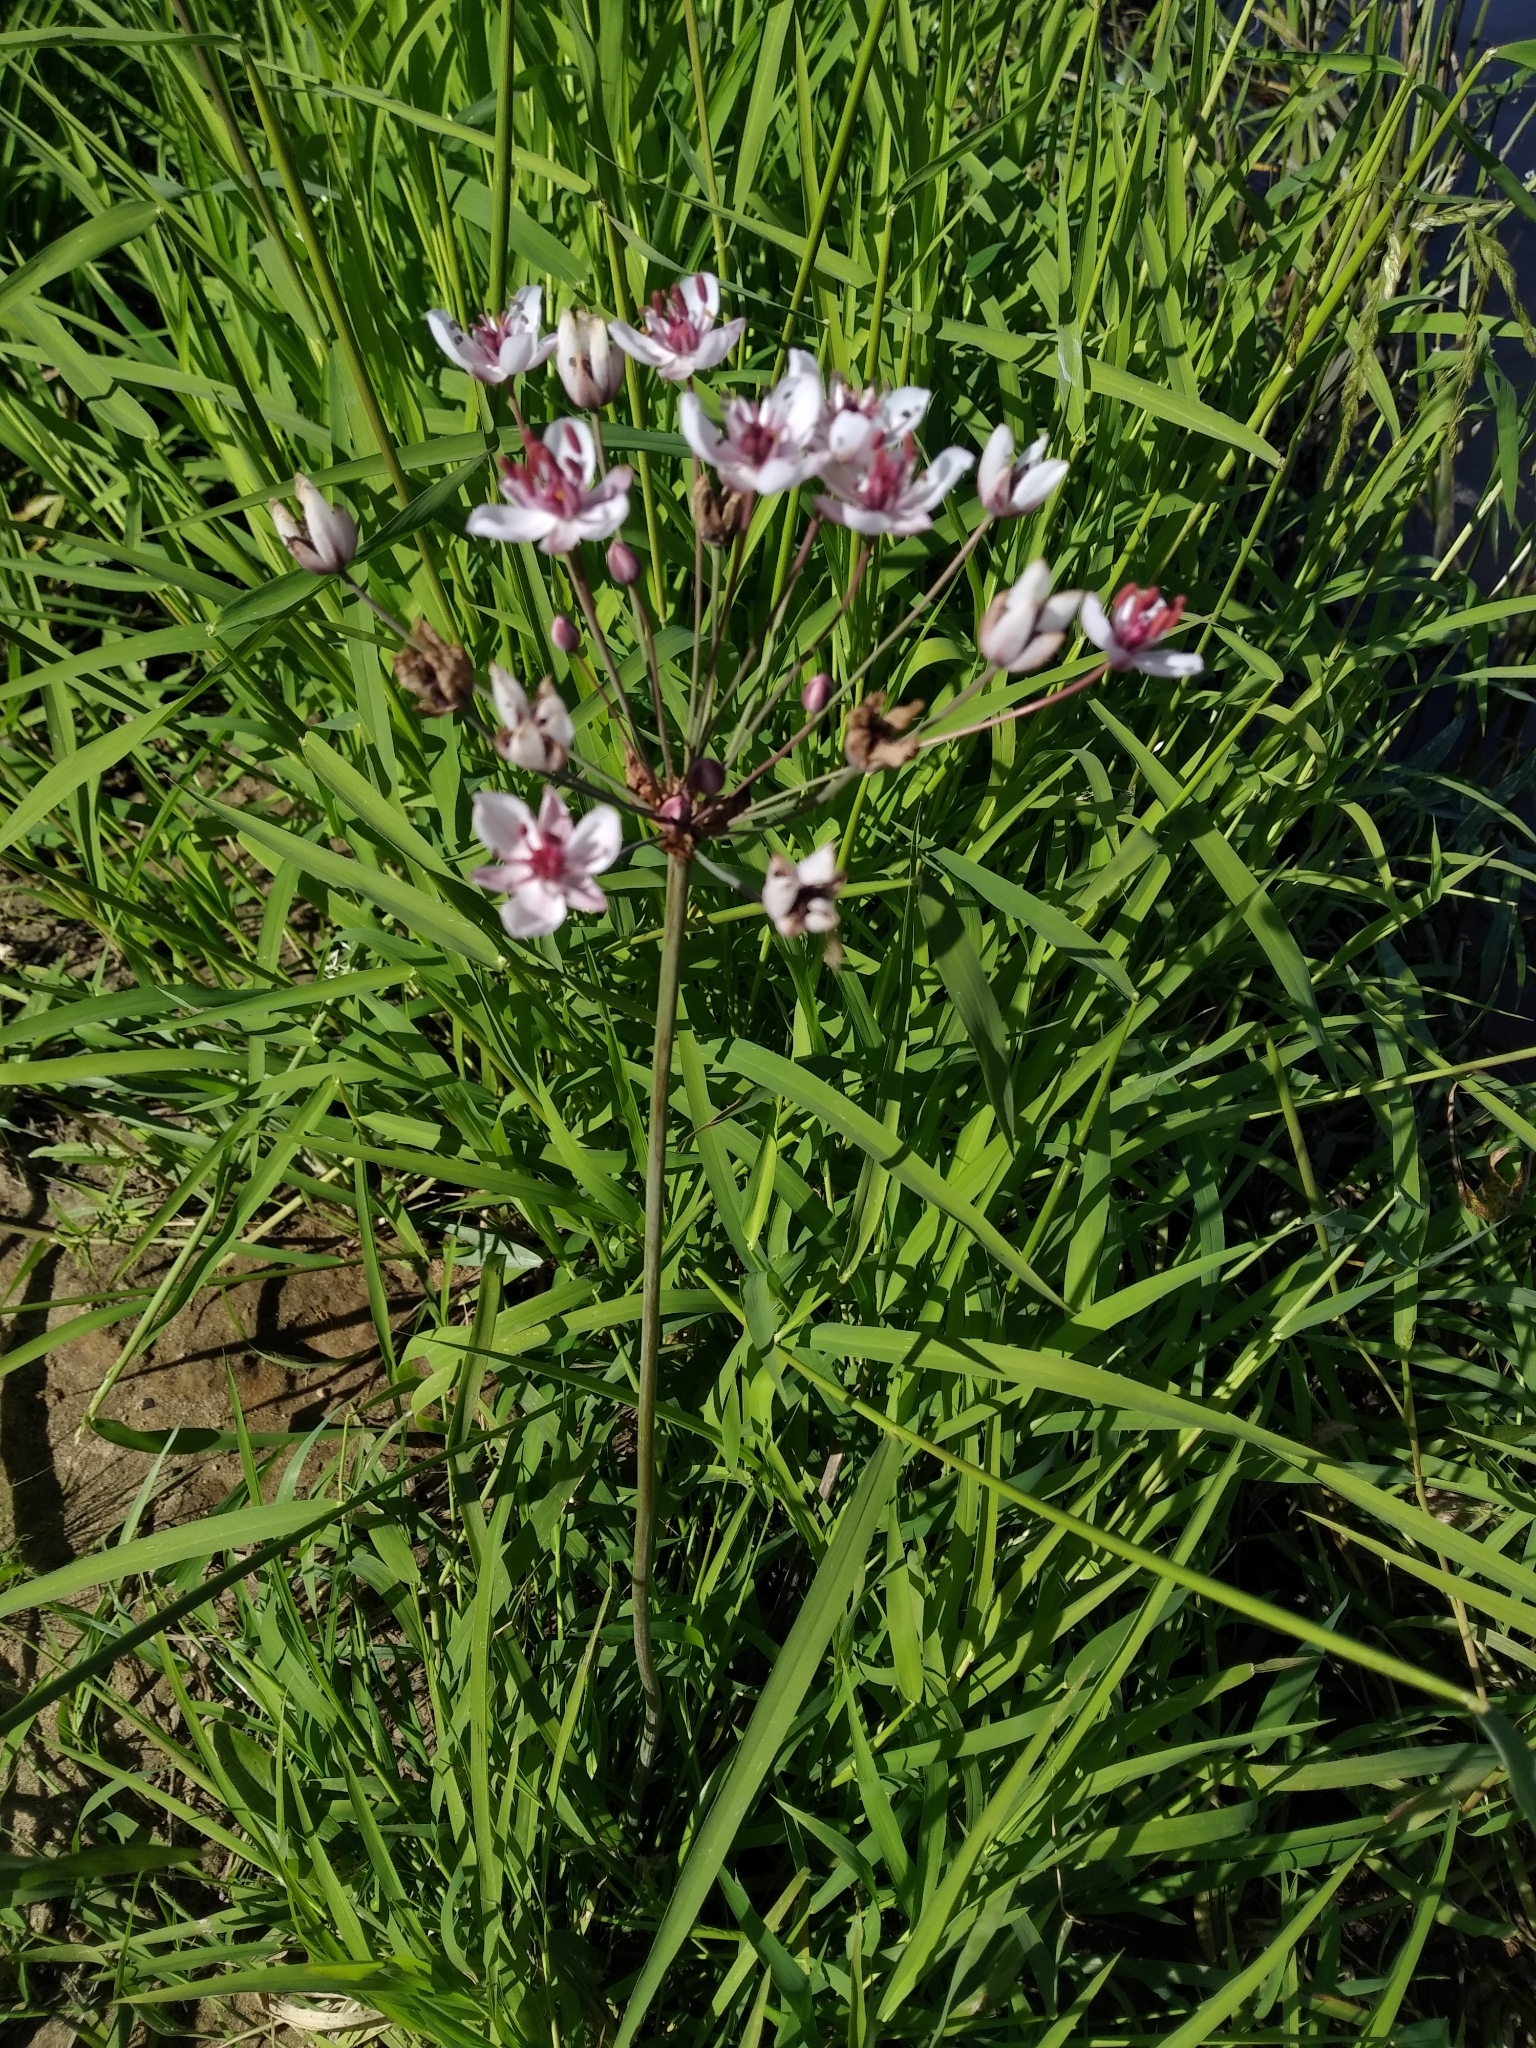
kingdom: Plantae
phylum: Tracheophyta
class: Liliopsida
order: Alismatales
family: Butomaceae
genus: Butomus
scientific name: Butomus umbellatus
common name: Flowering-rush
